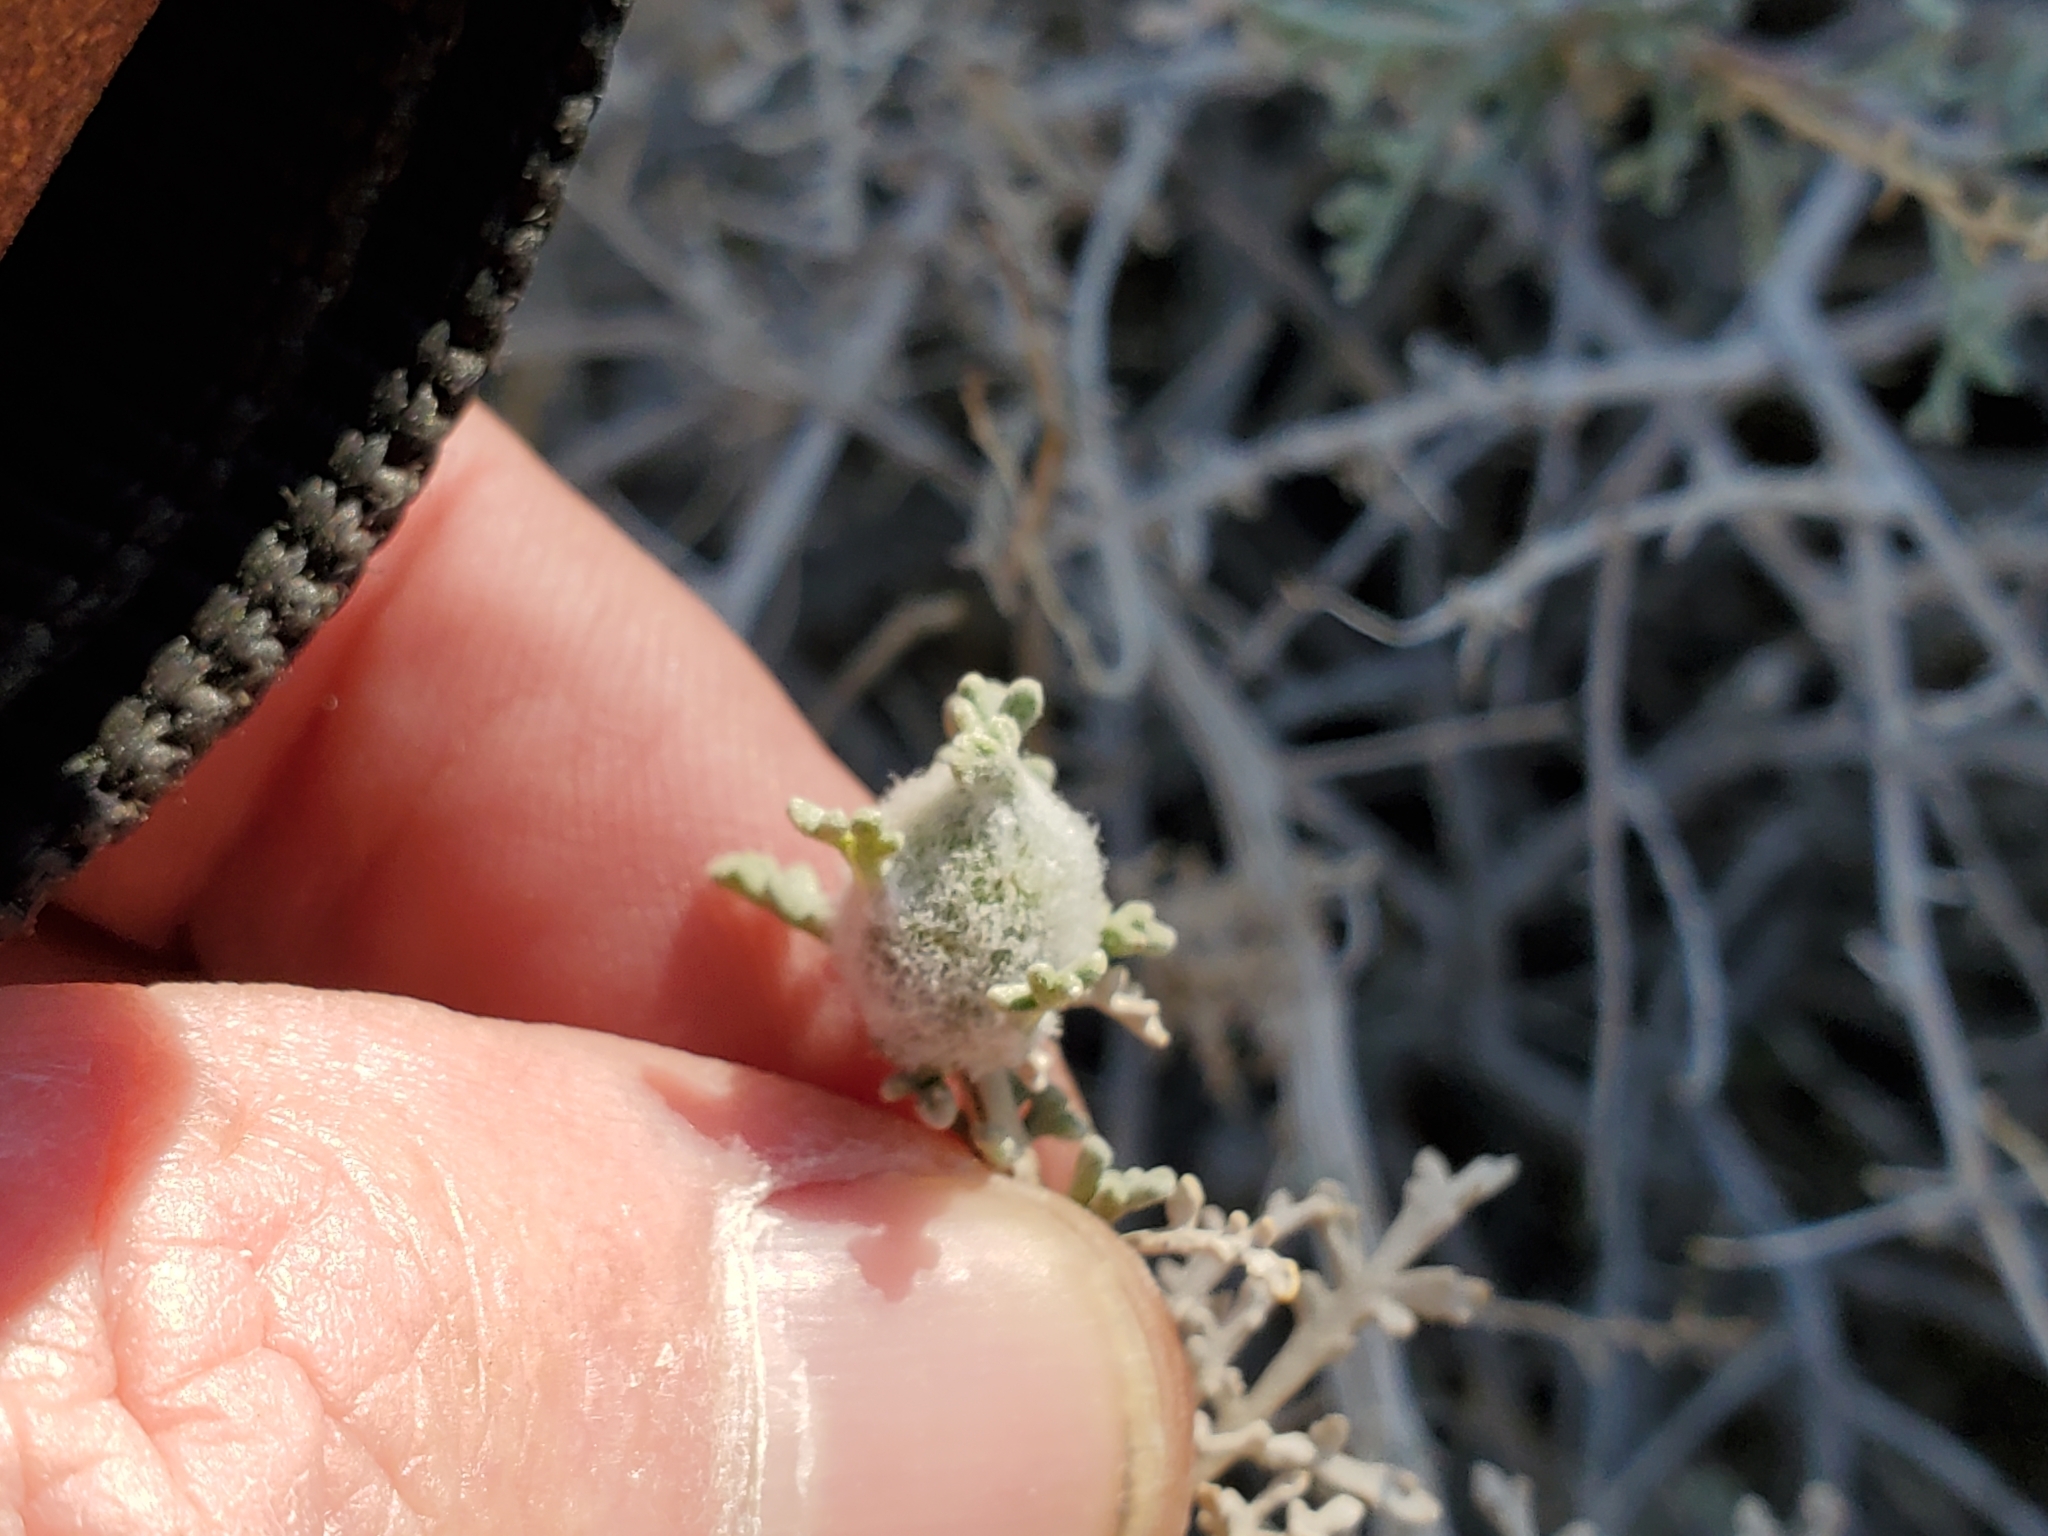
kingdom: Plantae
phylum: Tracheophyta
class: Magnoliopsida
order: Asterales
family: Asteraceae
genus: Ambrosia
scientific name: Ambrosia dumosa
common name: Bur-sage
